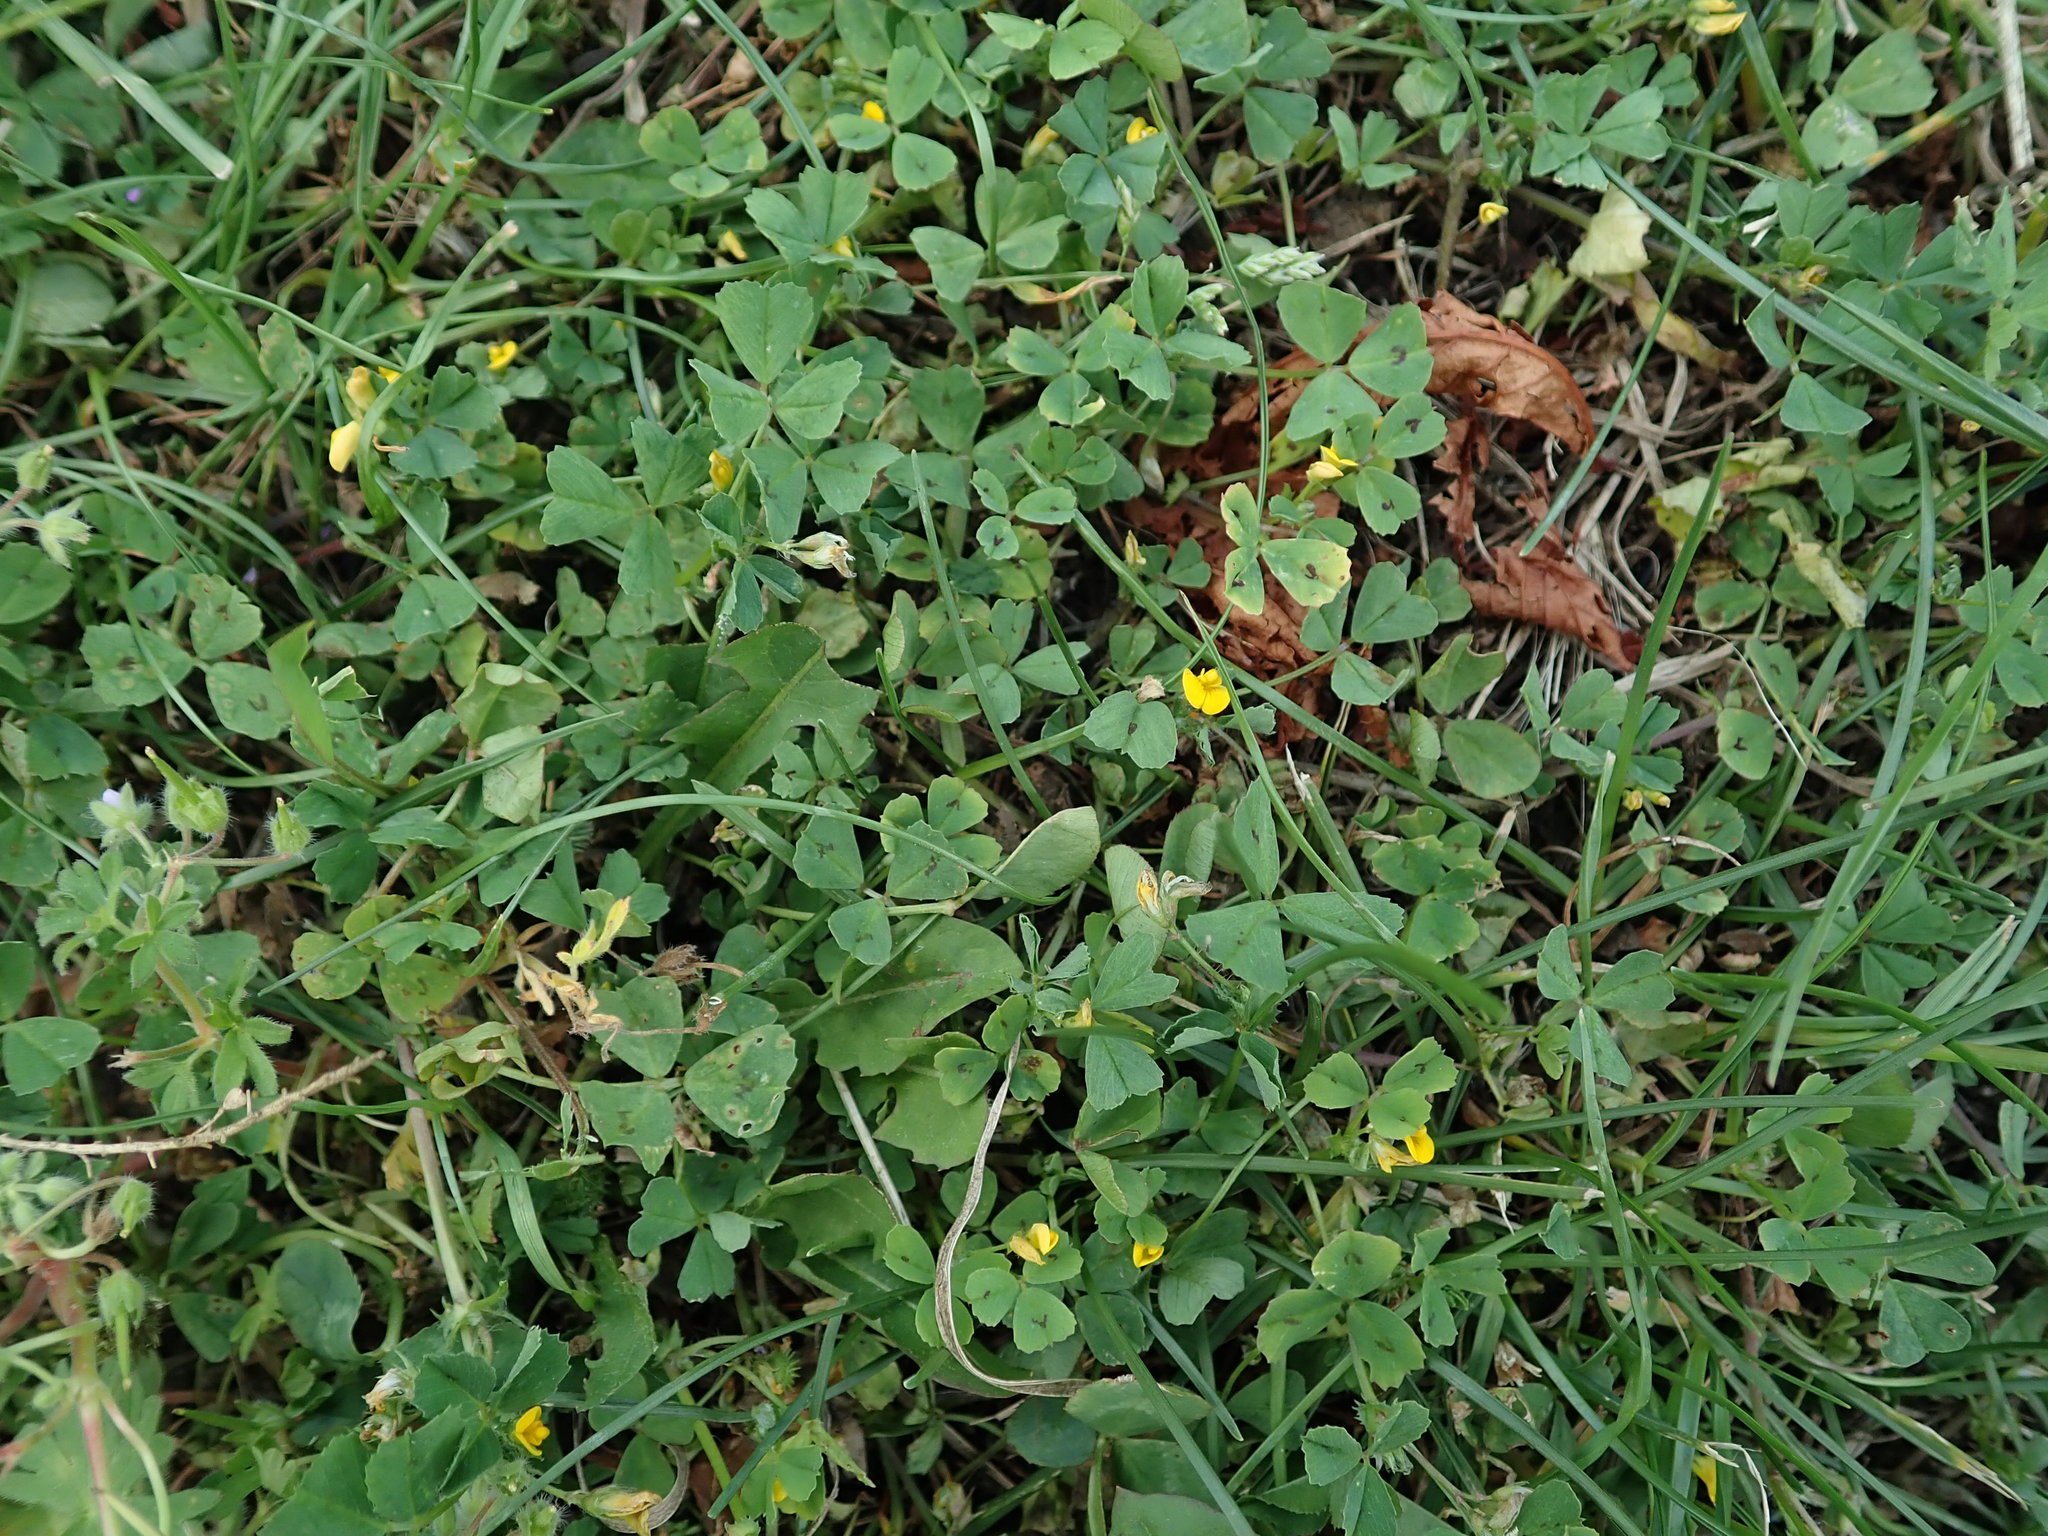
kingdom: Plantae
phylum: Tracheophyta
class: Magnoliopsida
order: Fabales
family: Fabaceae
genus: Medicago
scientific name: Medicago arabica
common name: Spotted medick
